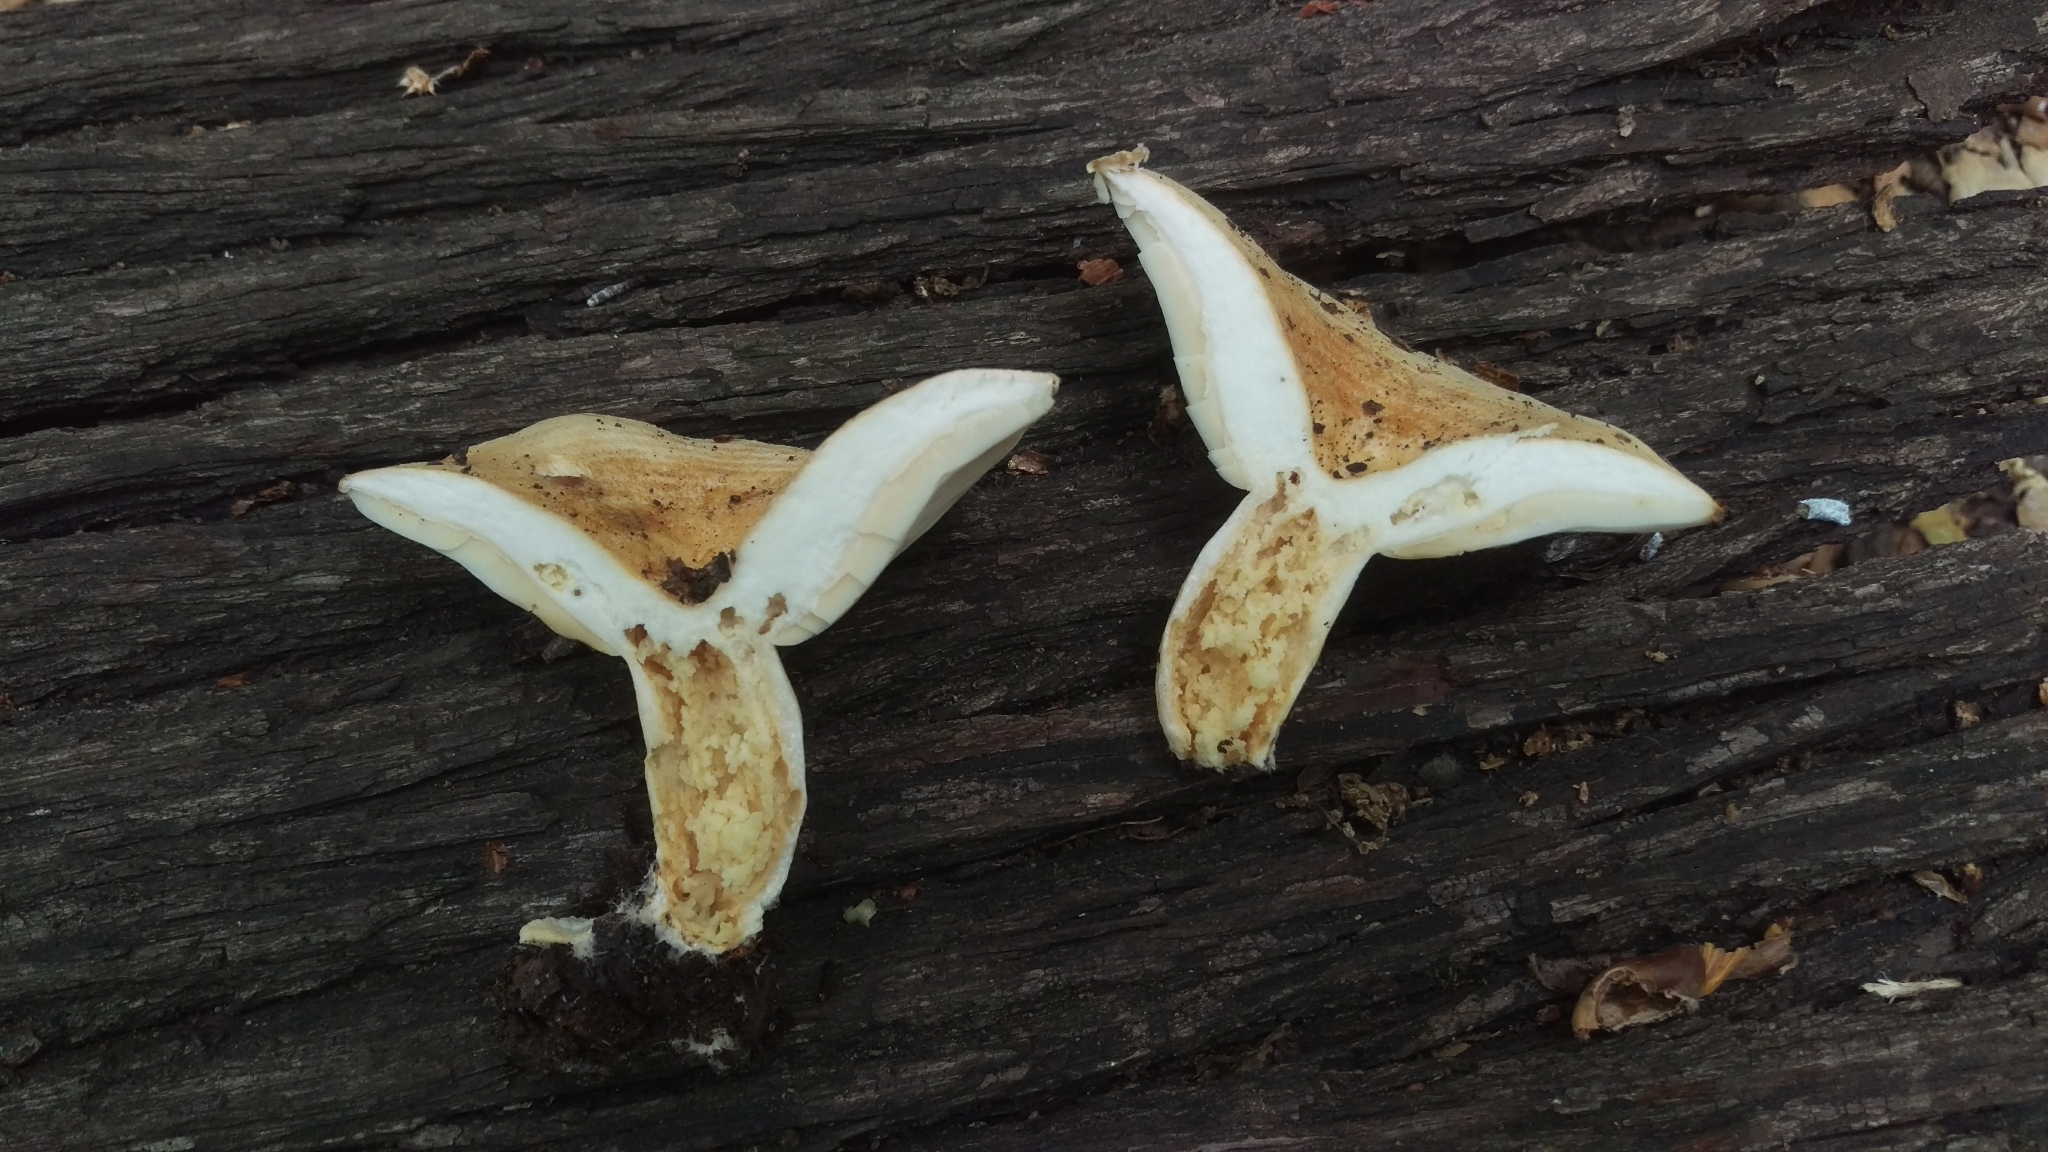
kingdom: Fungi
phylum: Basidiomycota
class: Agaricomycetes
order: Russulales
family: Russulaceae
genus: Lactarius
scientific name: Lactarius alnicola
